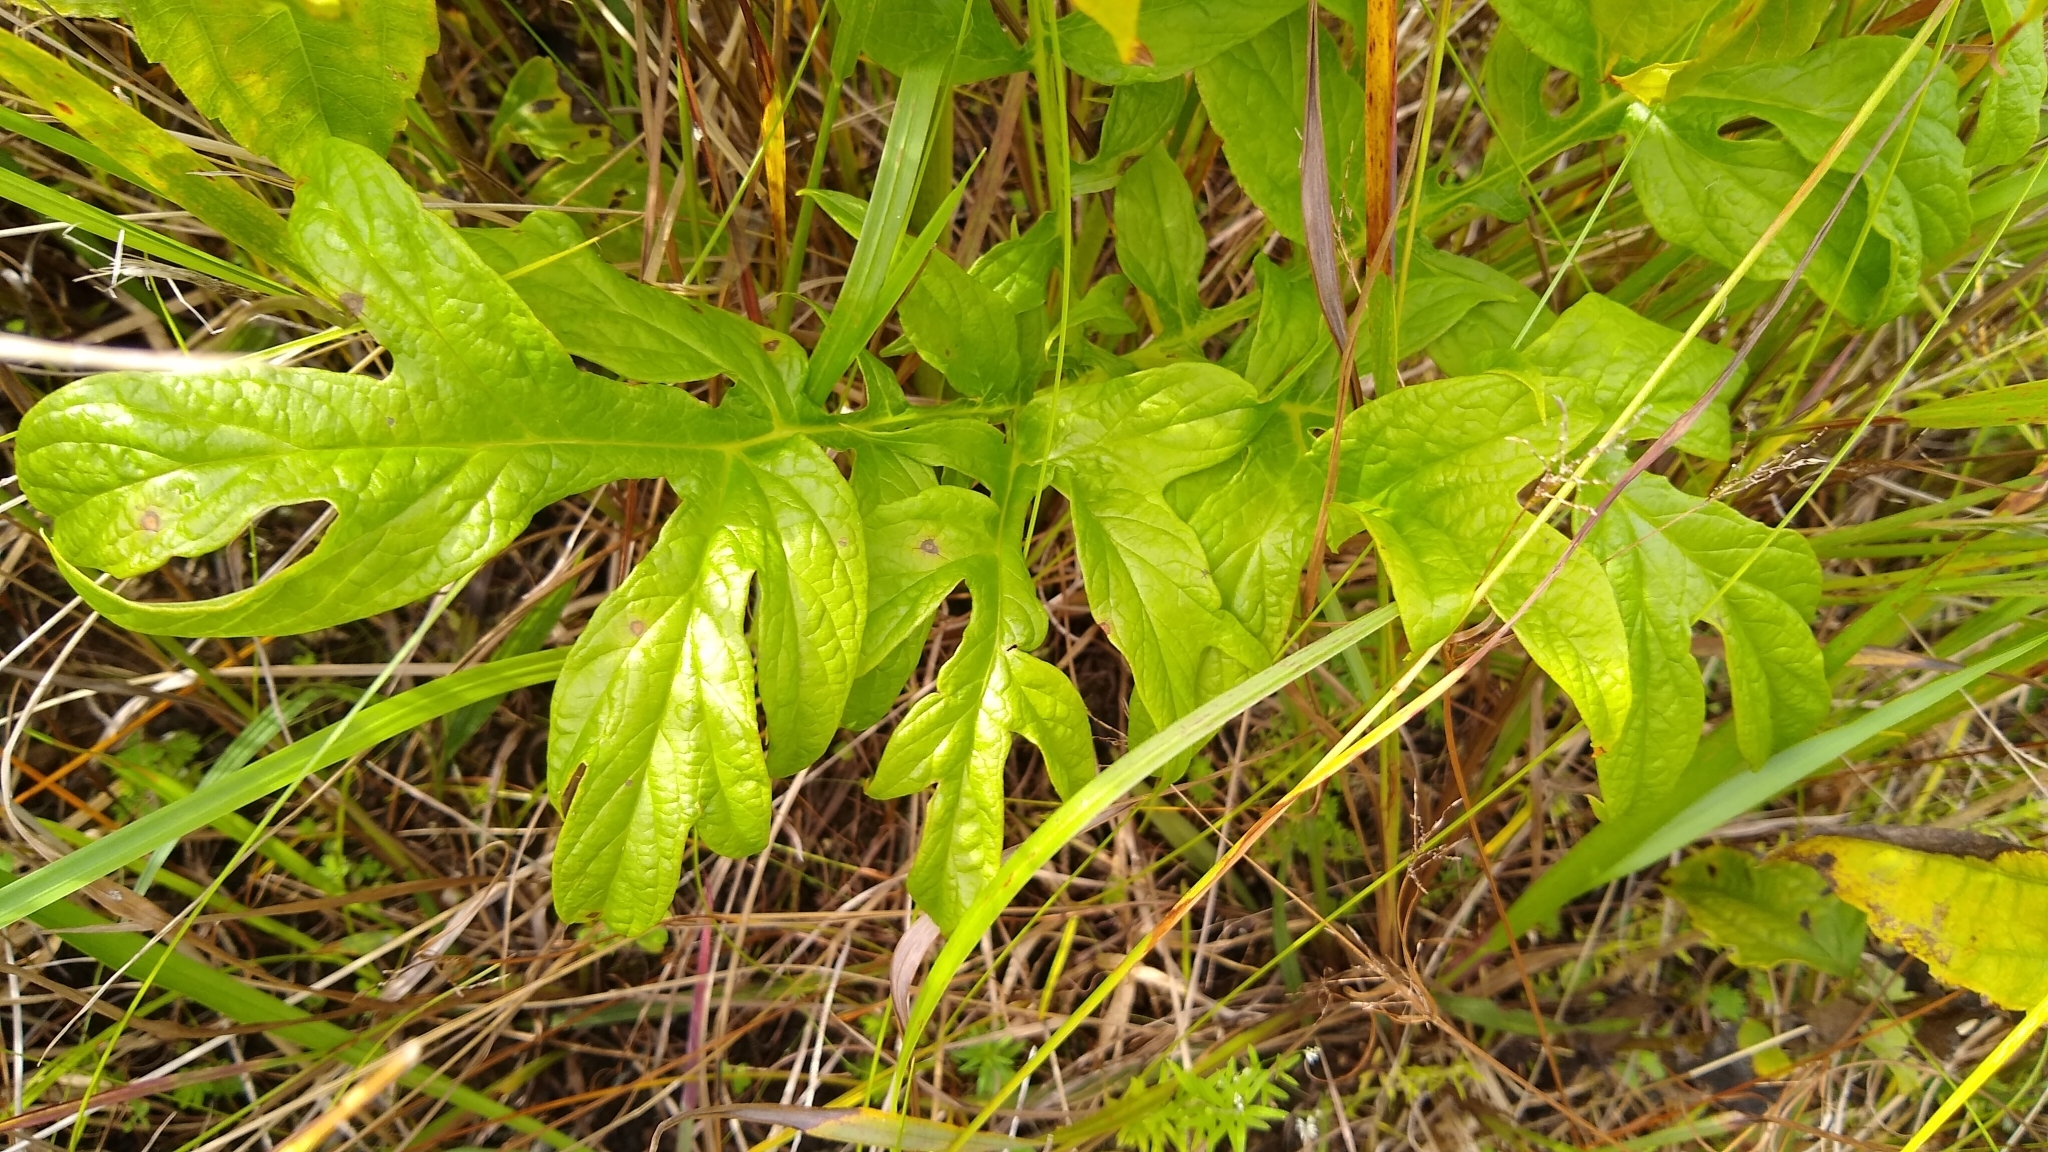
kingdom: Plantae
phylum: Tracheophyta
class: Liliopsida
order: Dioscoreales
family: Dioscoreaceae
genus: Tacca
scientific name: Tacca leontopetaloides
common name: Arrowroot
